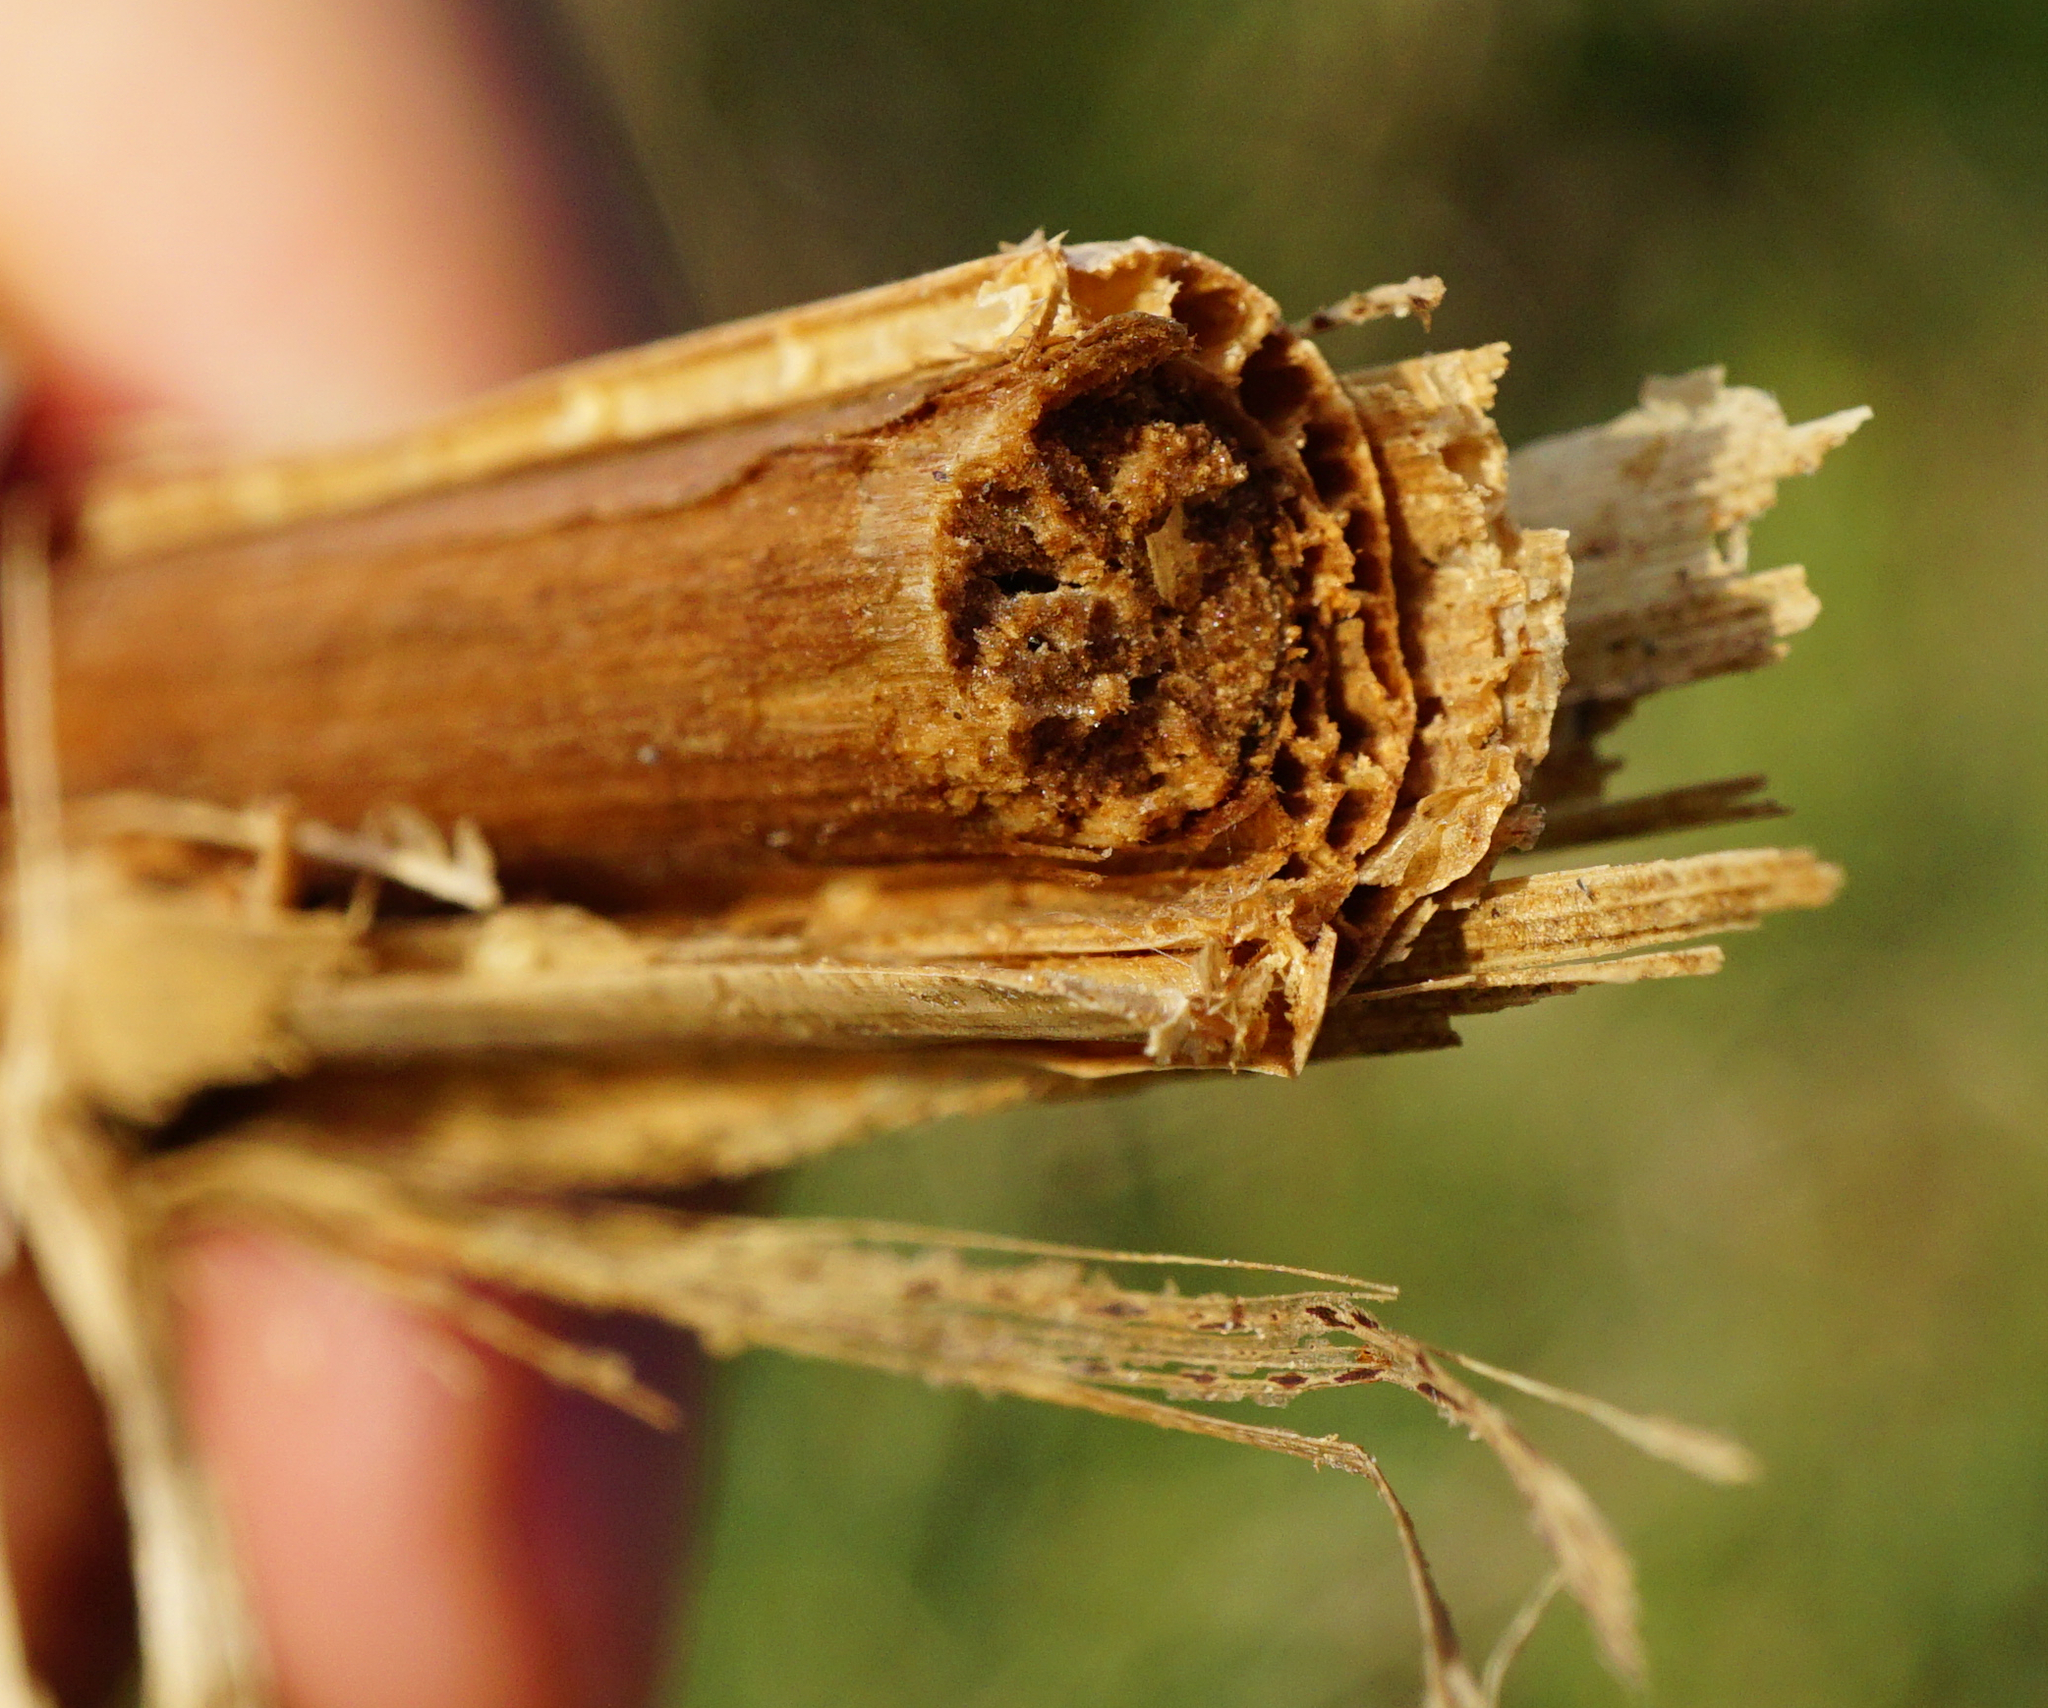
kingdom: Plantae
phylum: Tracheophyta
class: Liliopsida
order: Poales
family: Typhaceae
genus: Typha
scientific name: Typha angustifolia
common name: Lesser bulrush
